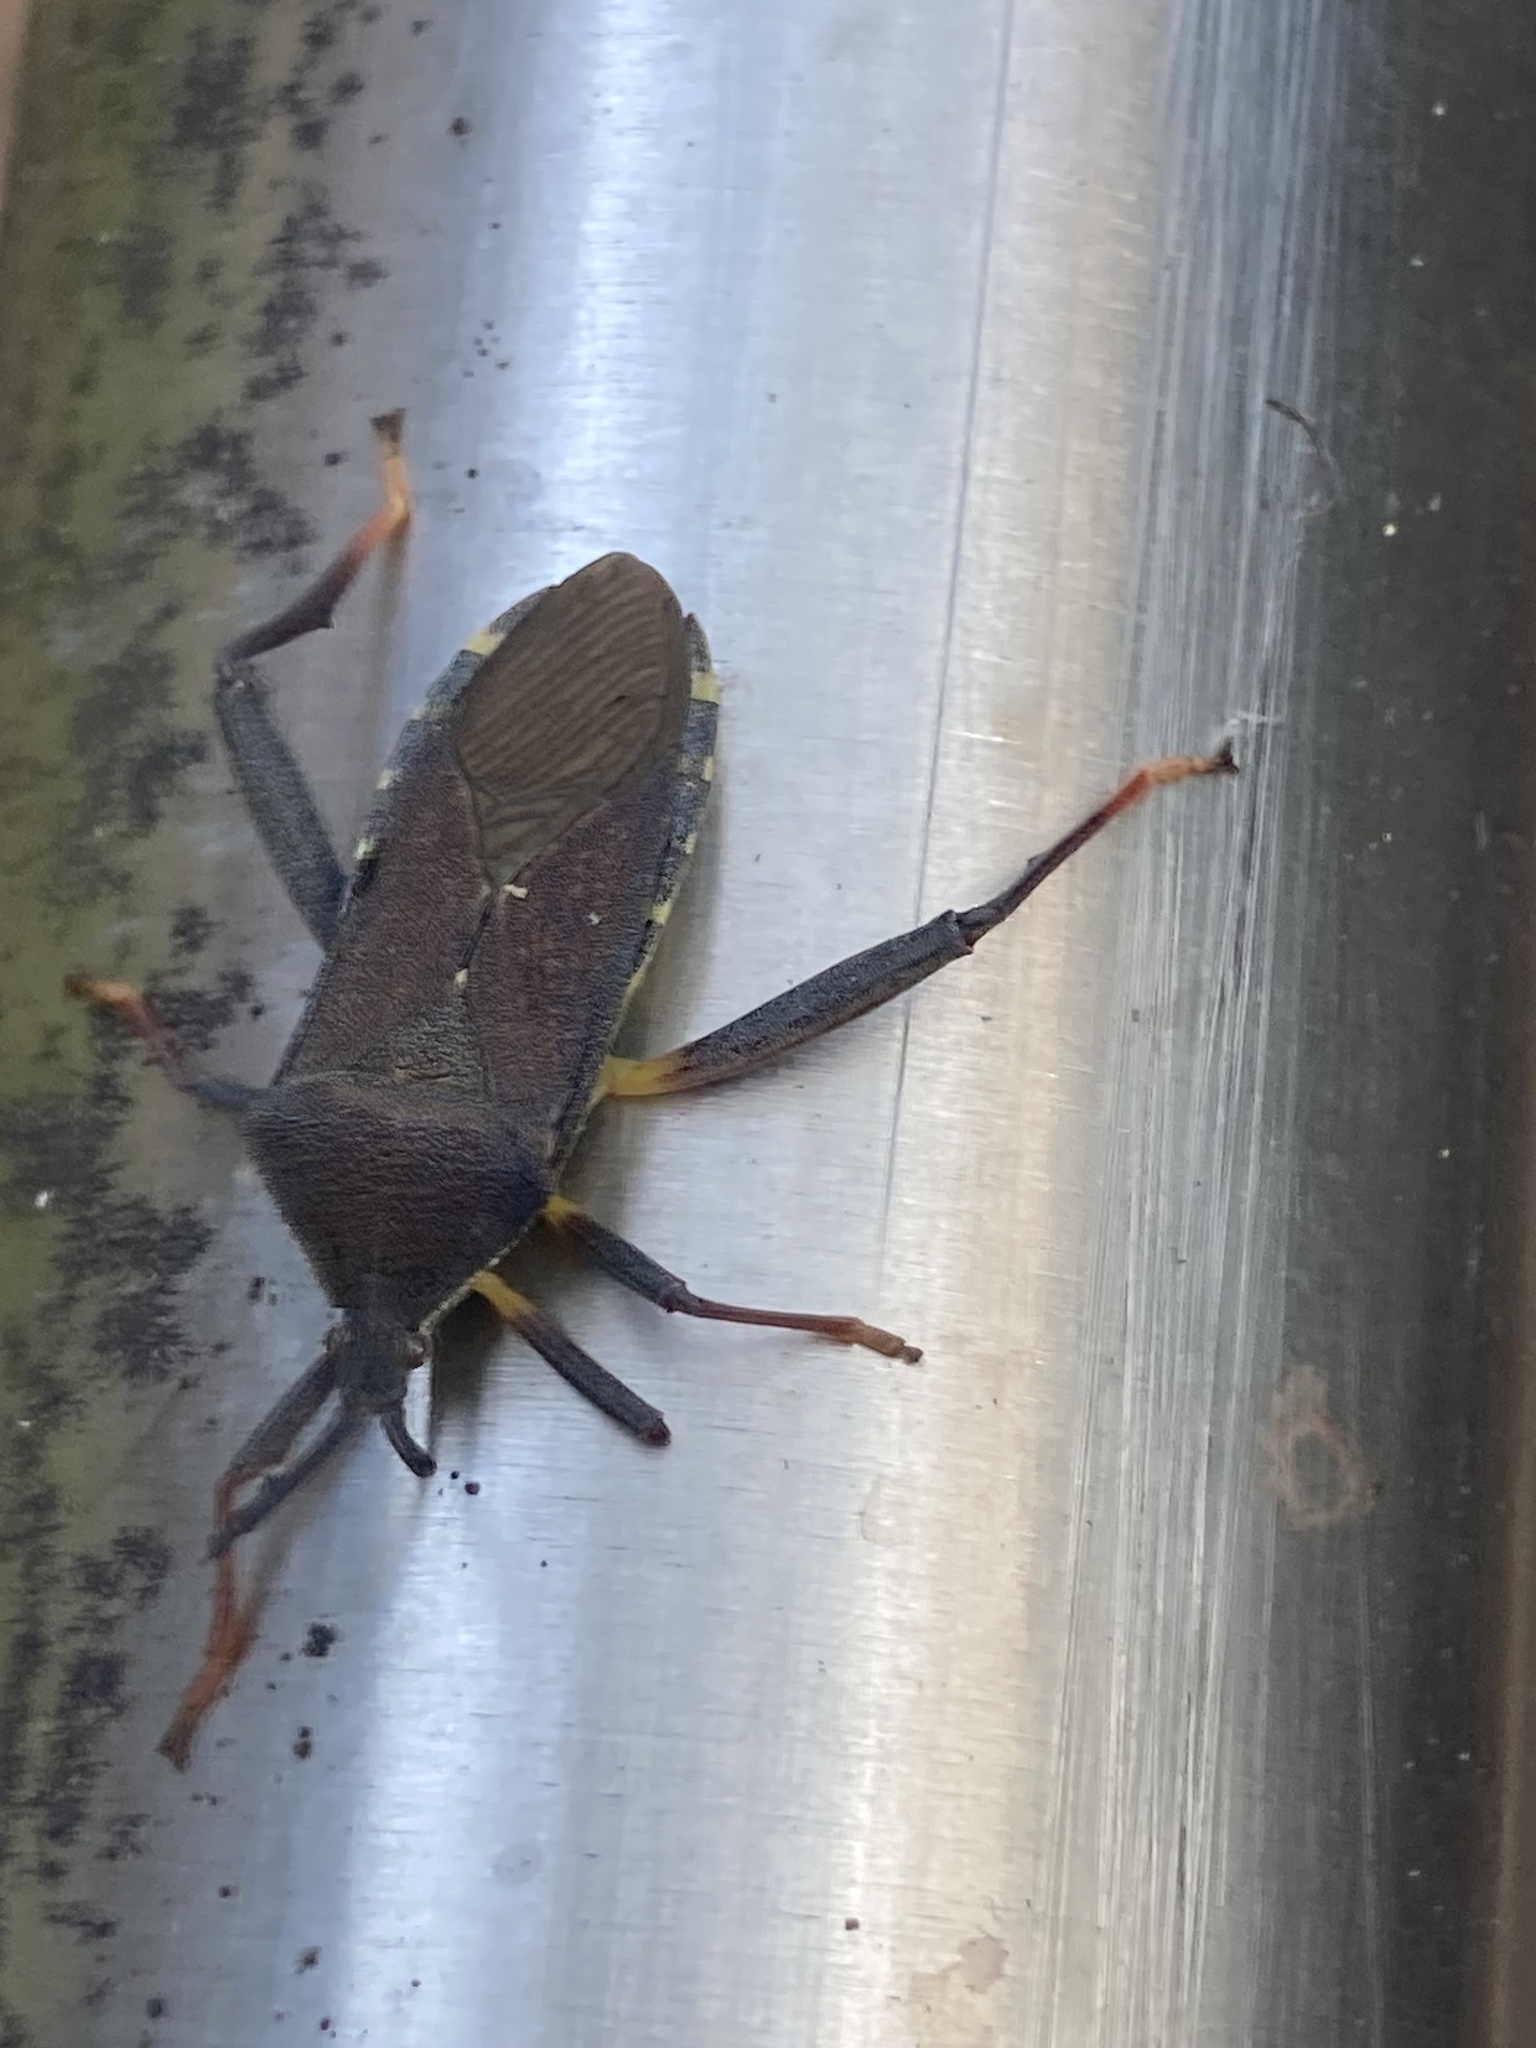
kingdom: Animalia
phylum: Arthropoda
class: Insecta
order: Hemiptera
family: Coreidae
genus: Amorbus
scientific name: Amorbus atomarius
